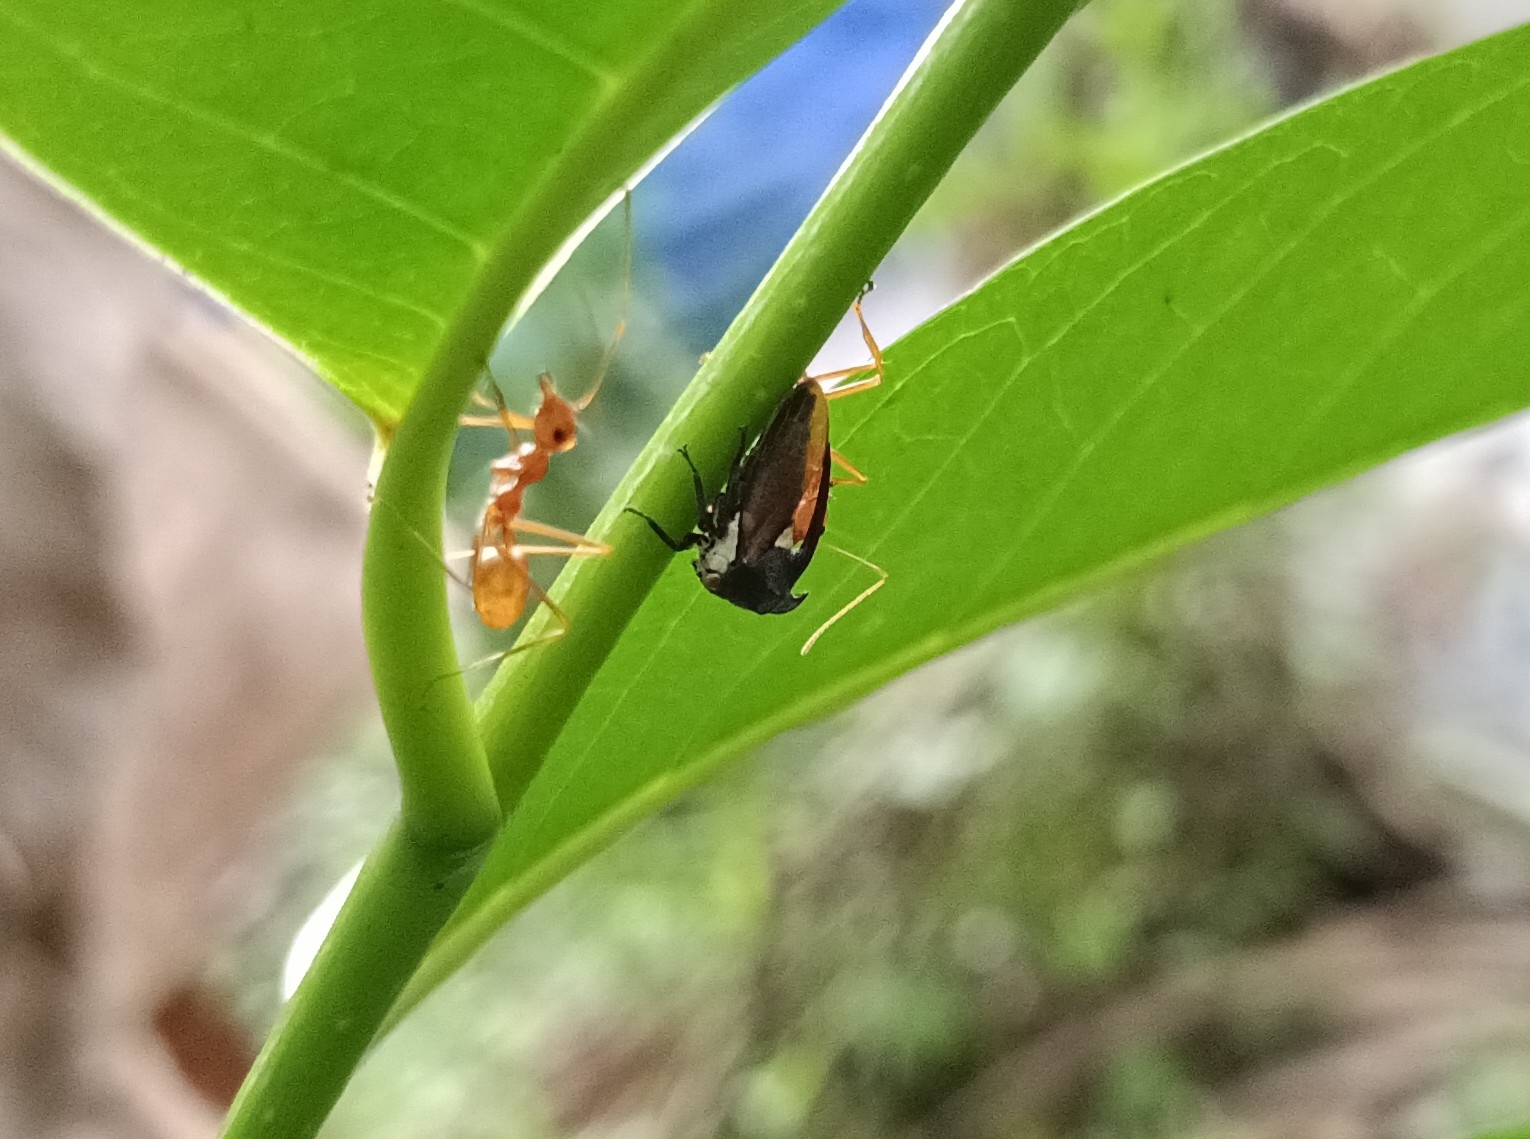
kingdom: Animalia
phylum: Arthropoda
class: Insecta
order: Hymenoptera
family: Formicidae
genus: Oecophylla
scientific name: Oecophylla smaragdina
